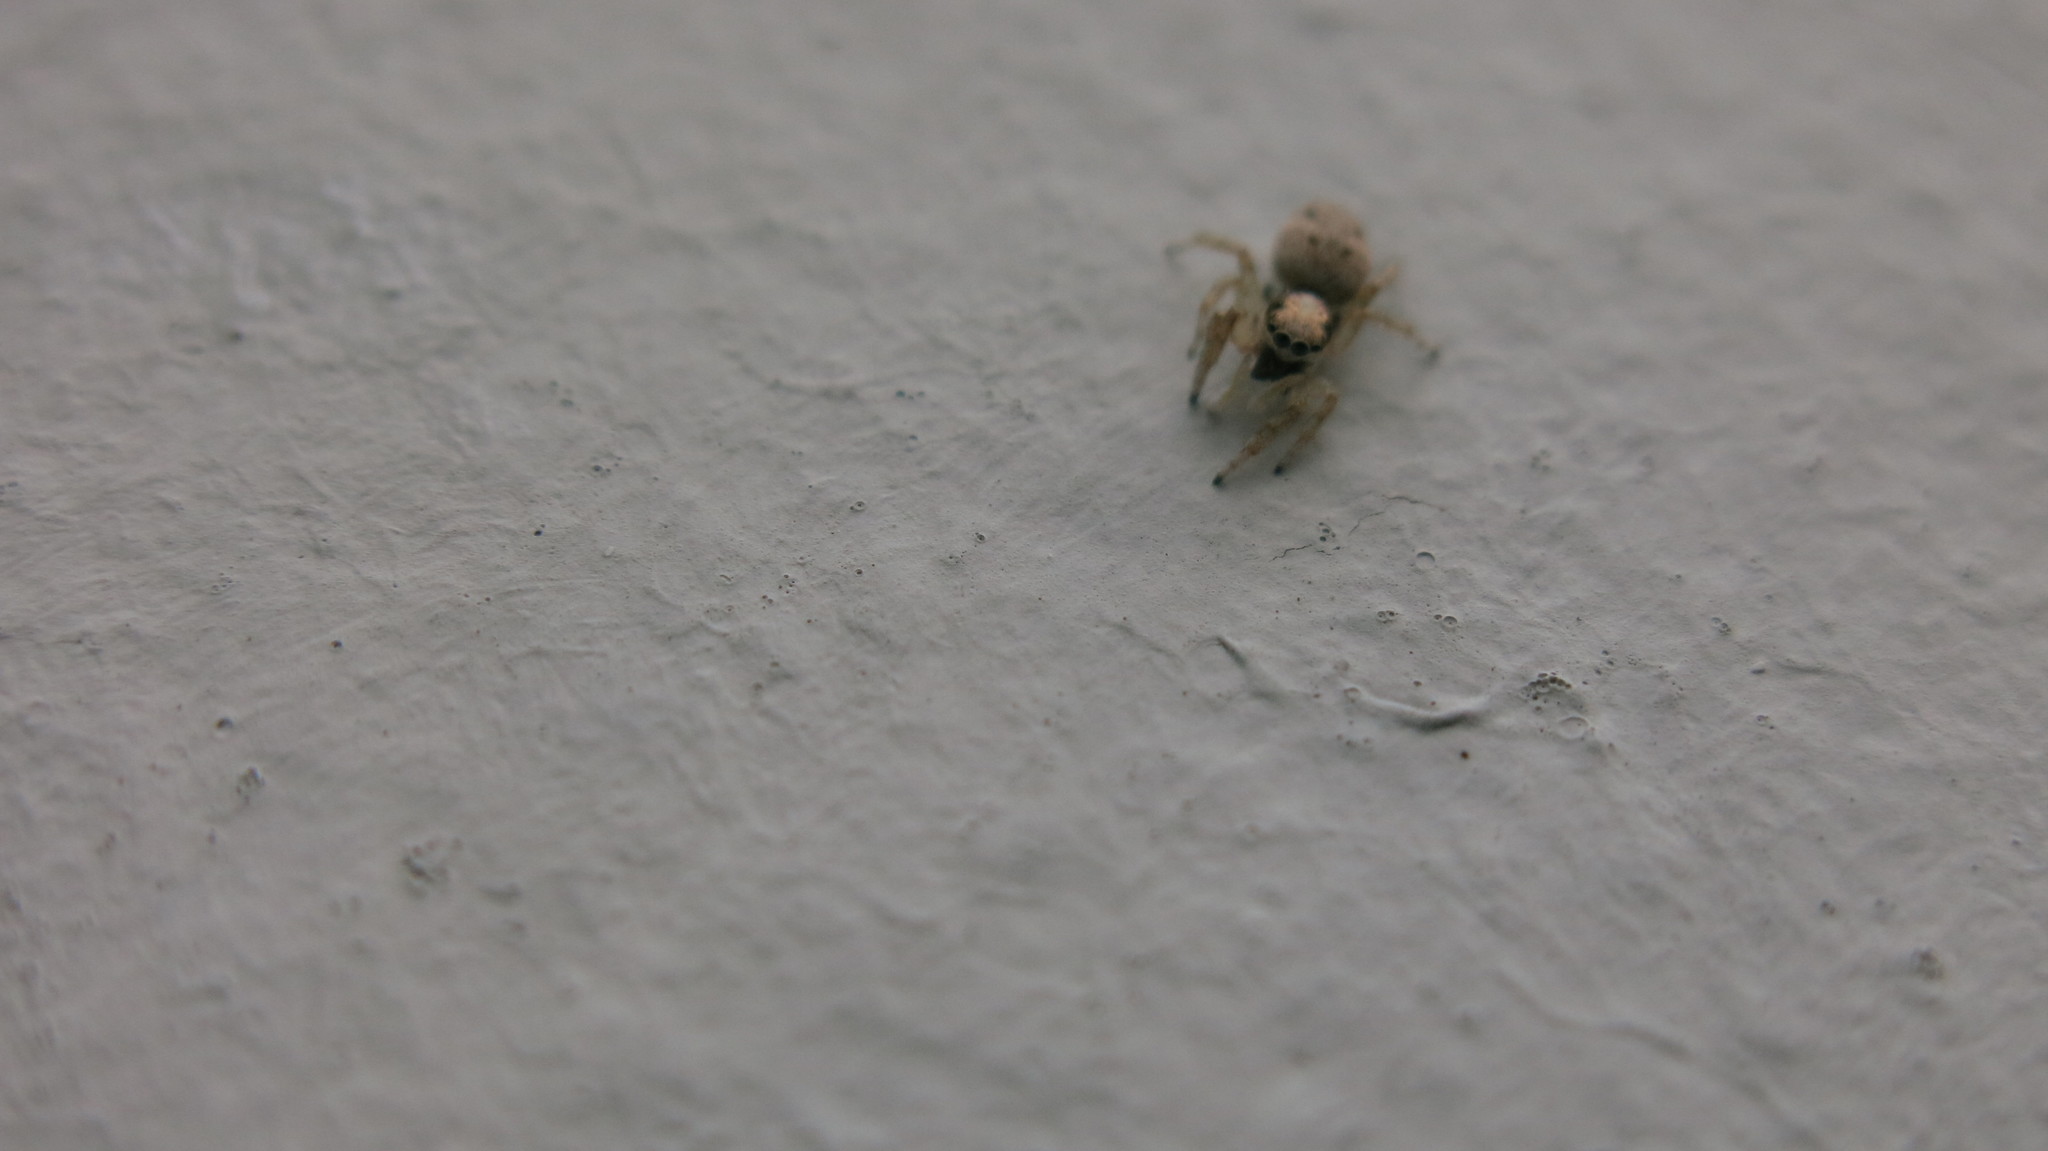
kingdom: Animalia
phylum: Arthropoda
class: Arachnida
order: Araneae
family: Salticidae
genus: Salticus
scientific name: Salticus mutabilis
